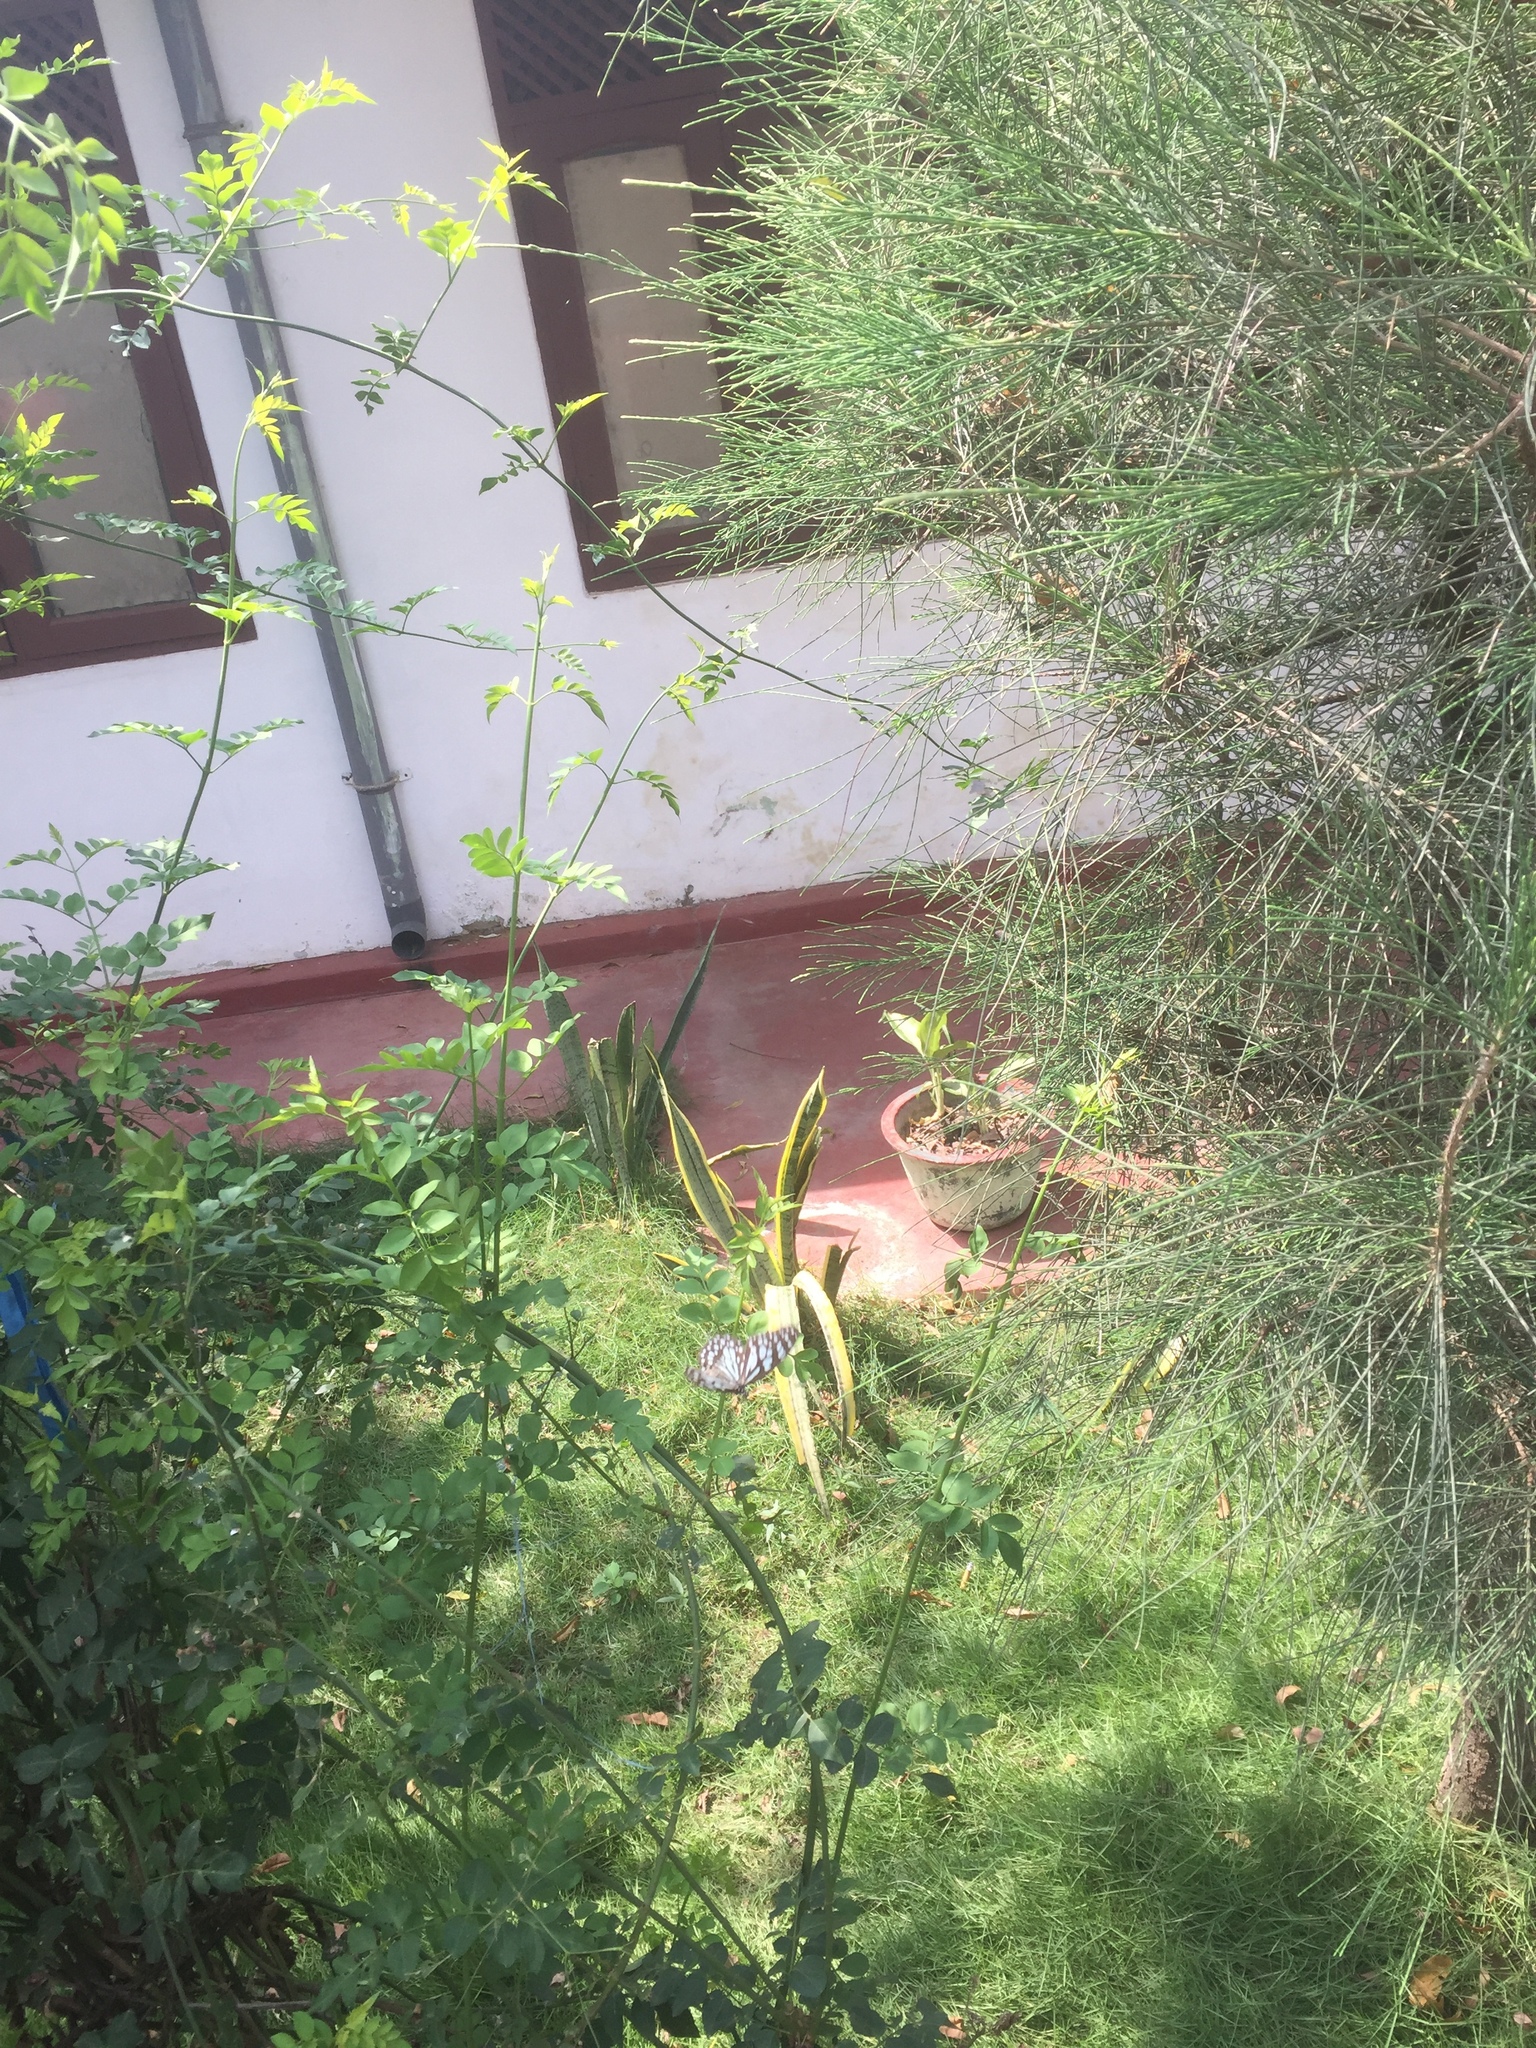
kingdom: Animalia
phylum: Arthropoda
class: Insecta
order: Lepidoptera
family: Nymphalidae
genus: Tirumala
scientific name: Tirumala limniace
